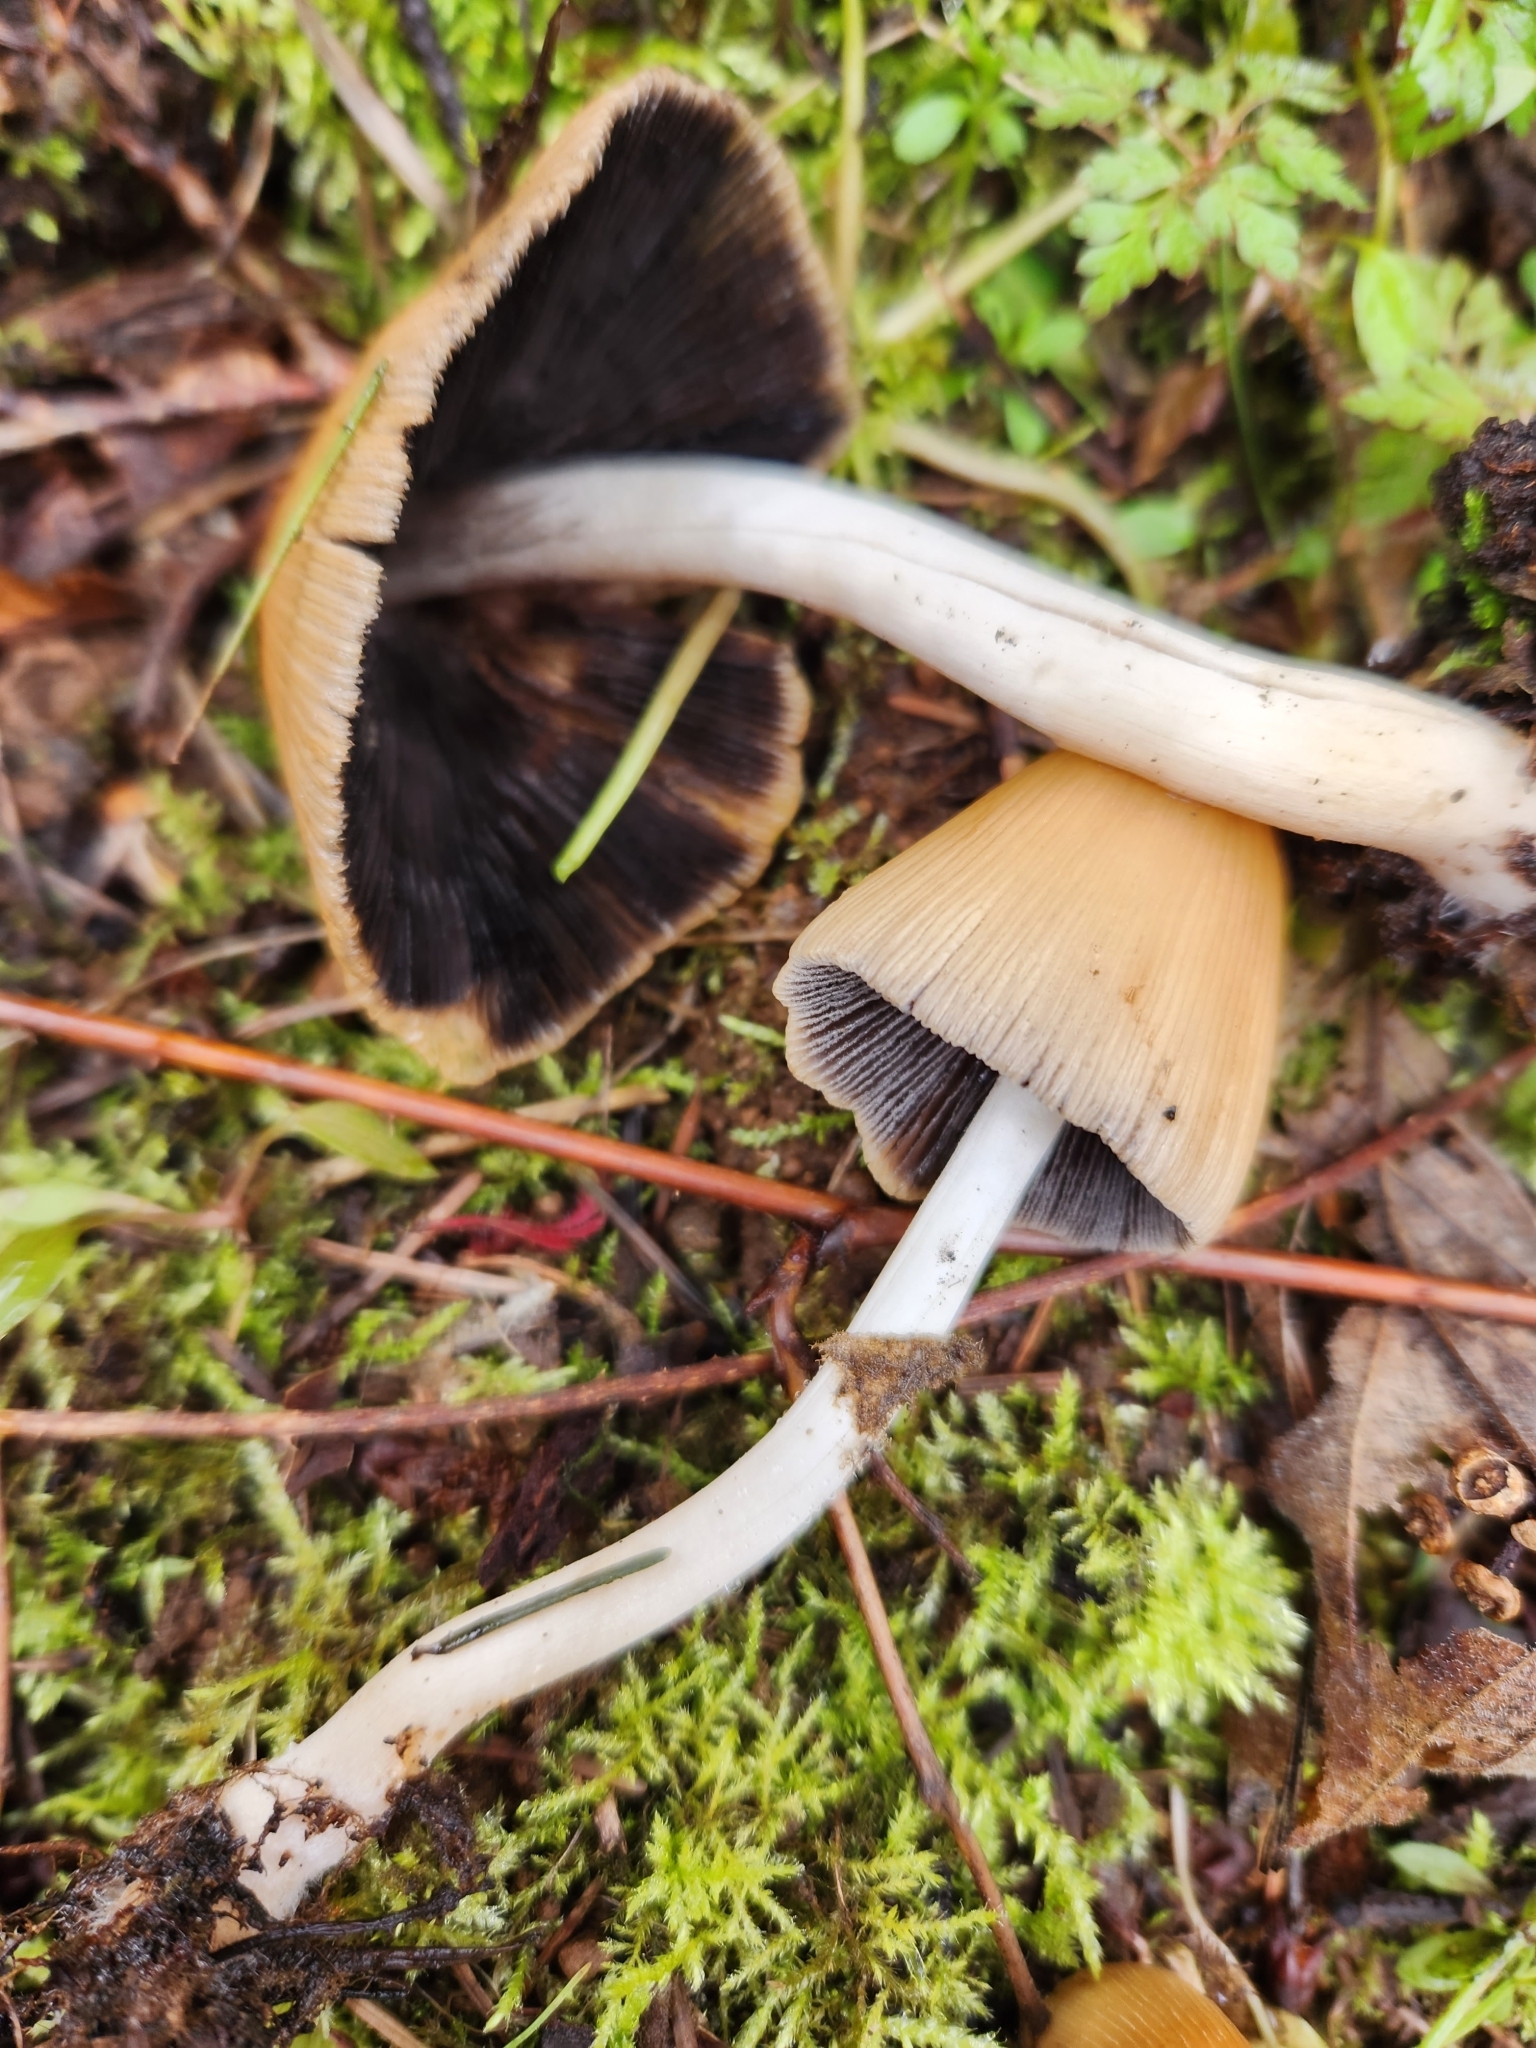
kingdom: Fungi
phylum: Basidiomycota
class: Agaricomycetes
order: Agaricales
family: Psathyrellaceae
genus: Coprinellus
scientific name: Coprinellus micaceus
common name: Glistening ink-cap
